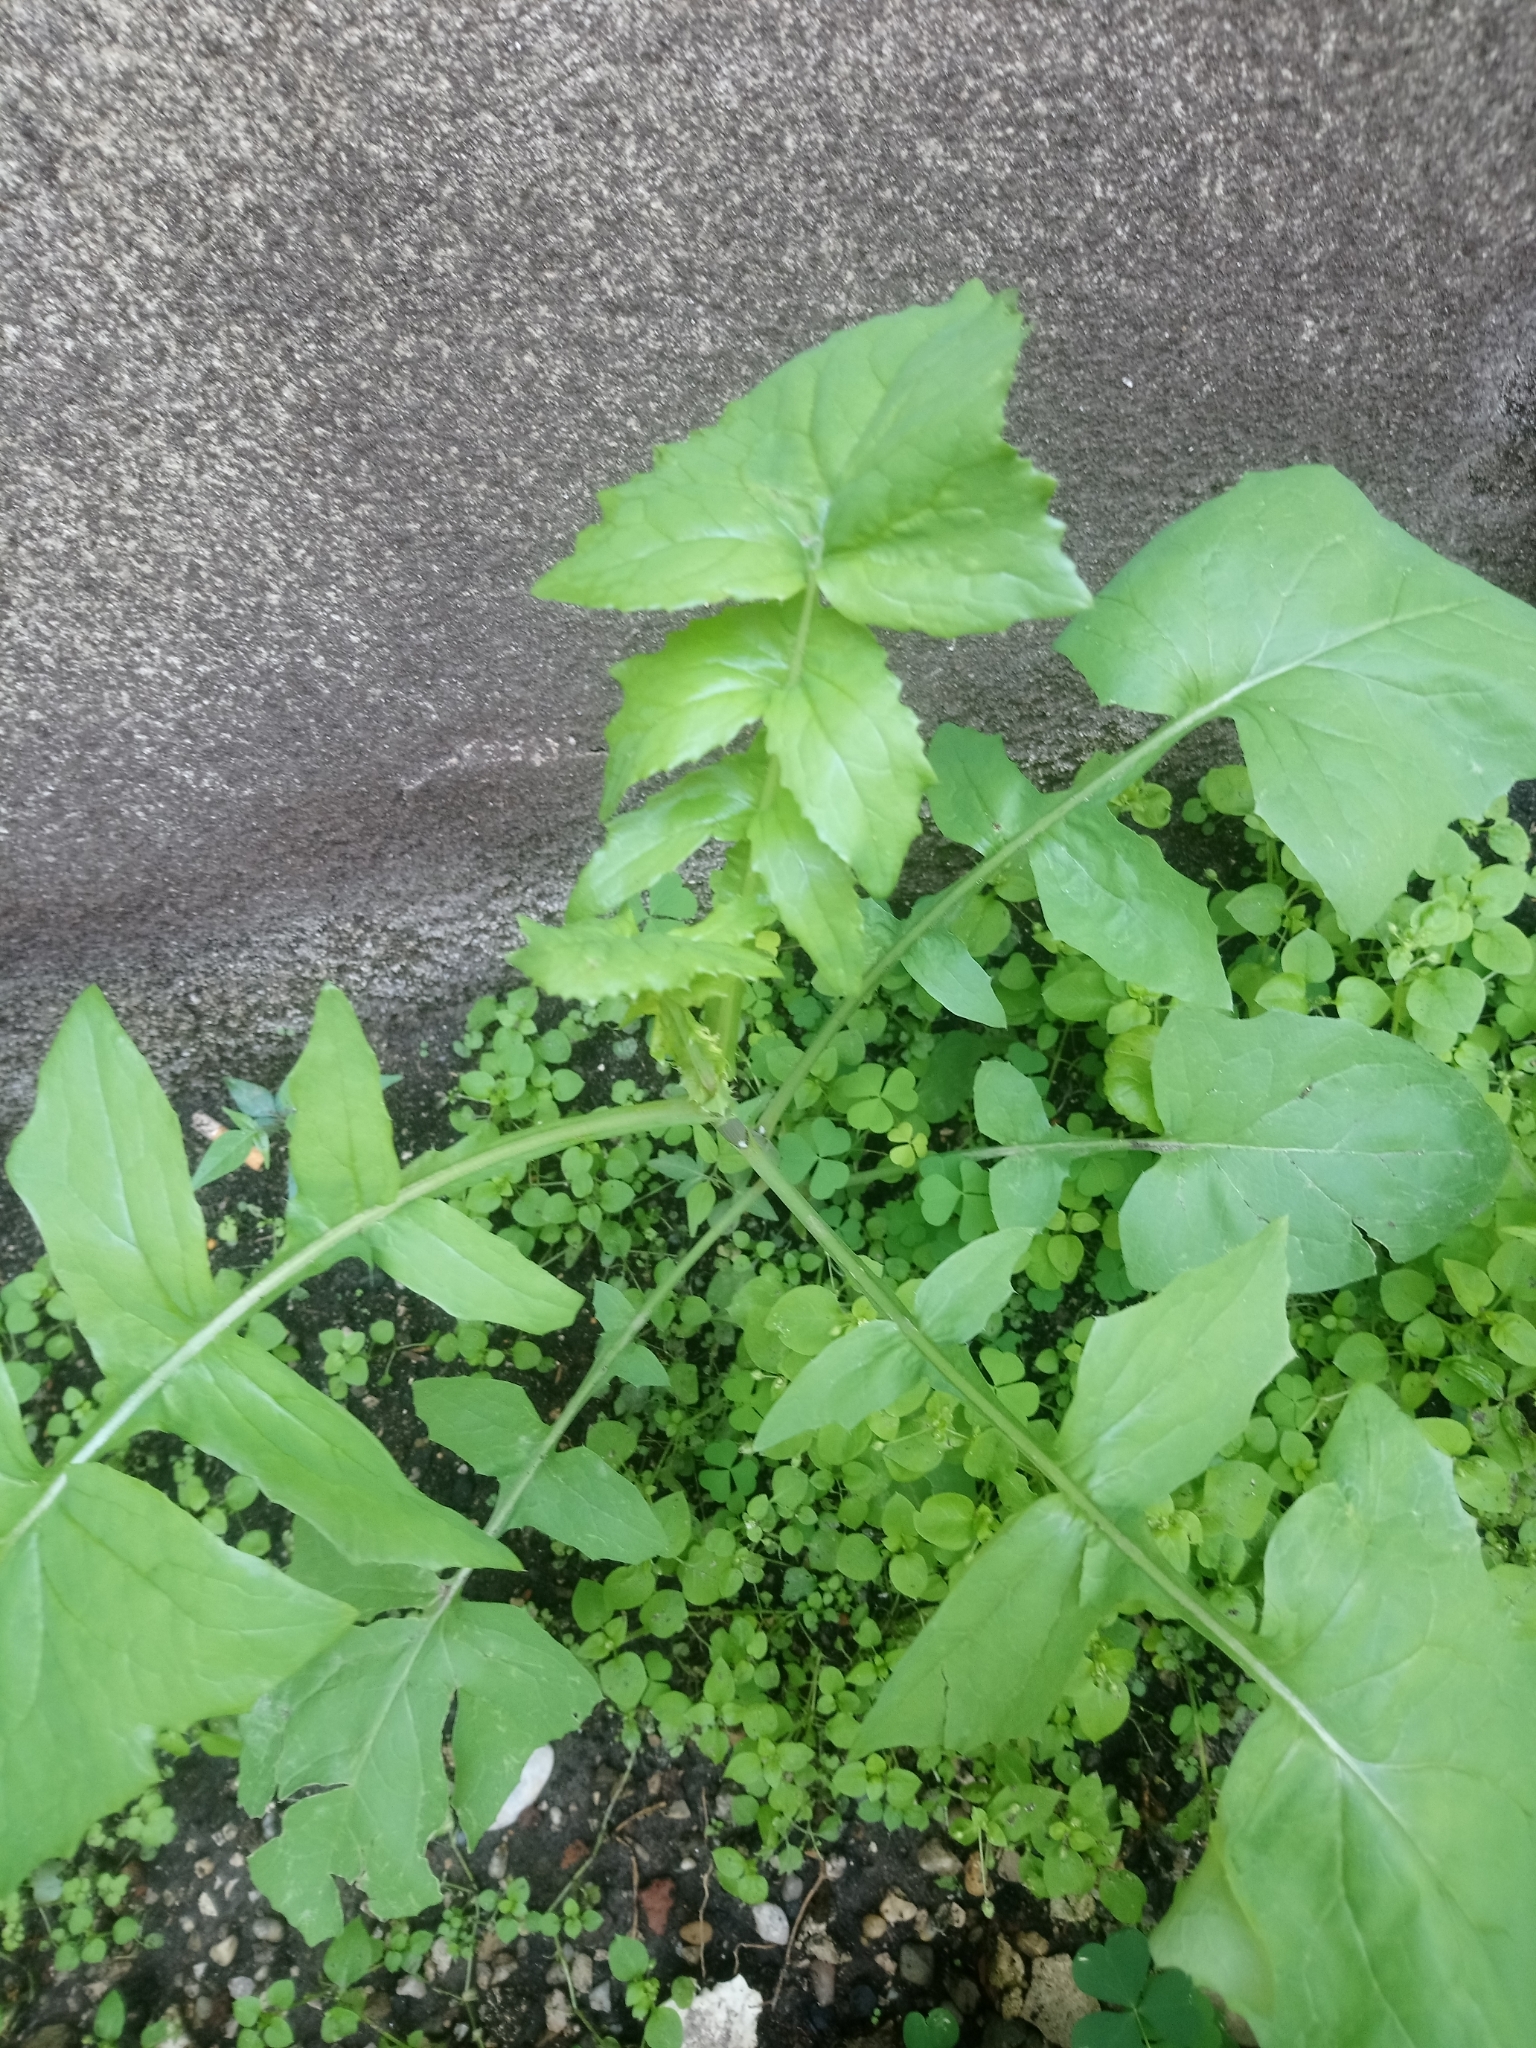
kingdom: Plantae
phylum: Tracheophyta
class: Magnoliopsida
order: Asterales
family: Asteraceae
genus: Sonchus
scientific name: Sonchus oleraceus
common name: Common sowthistle
